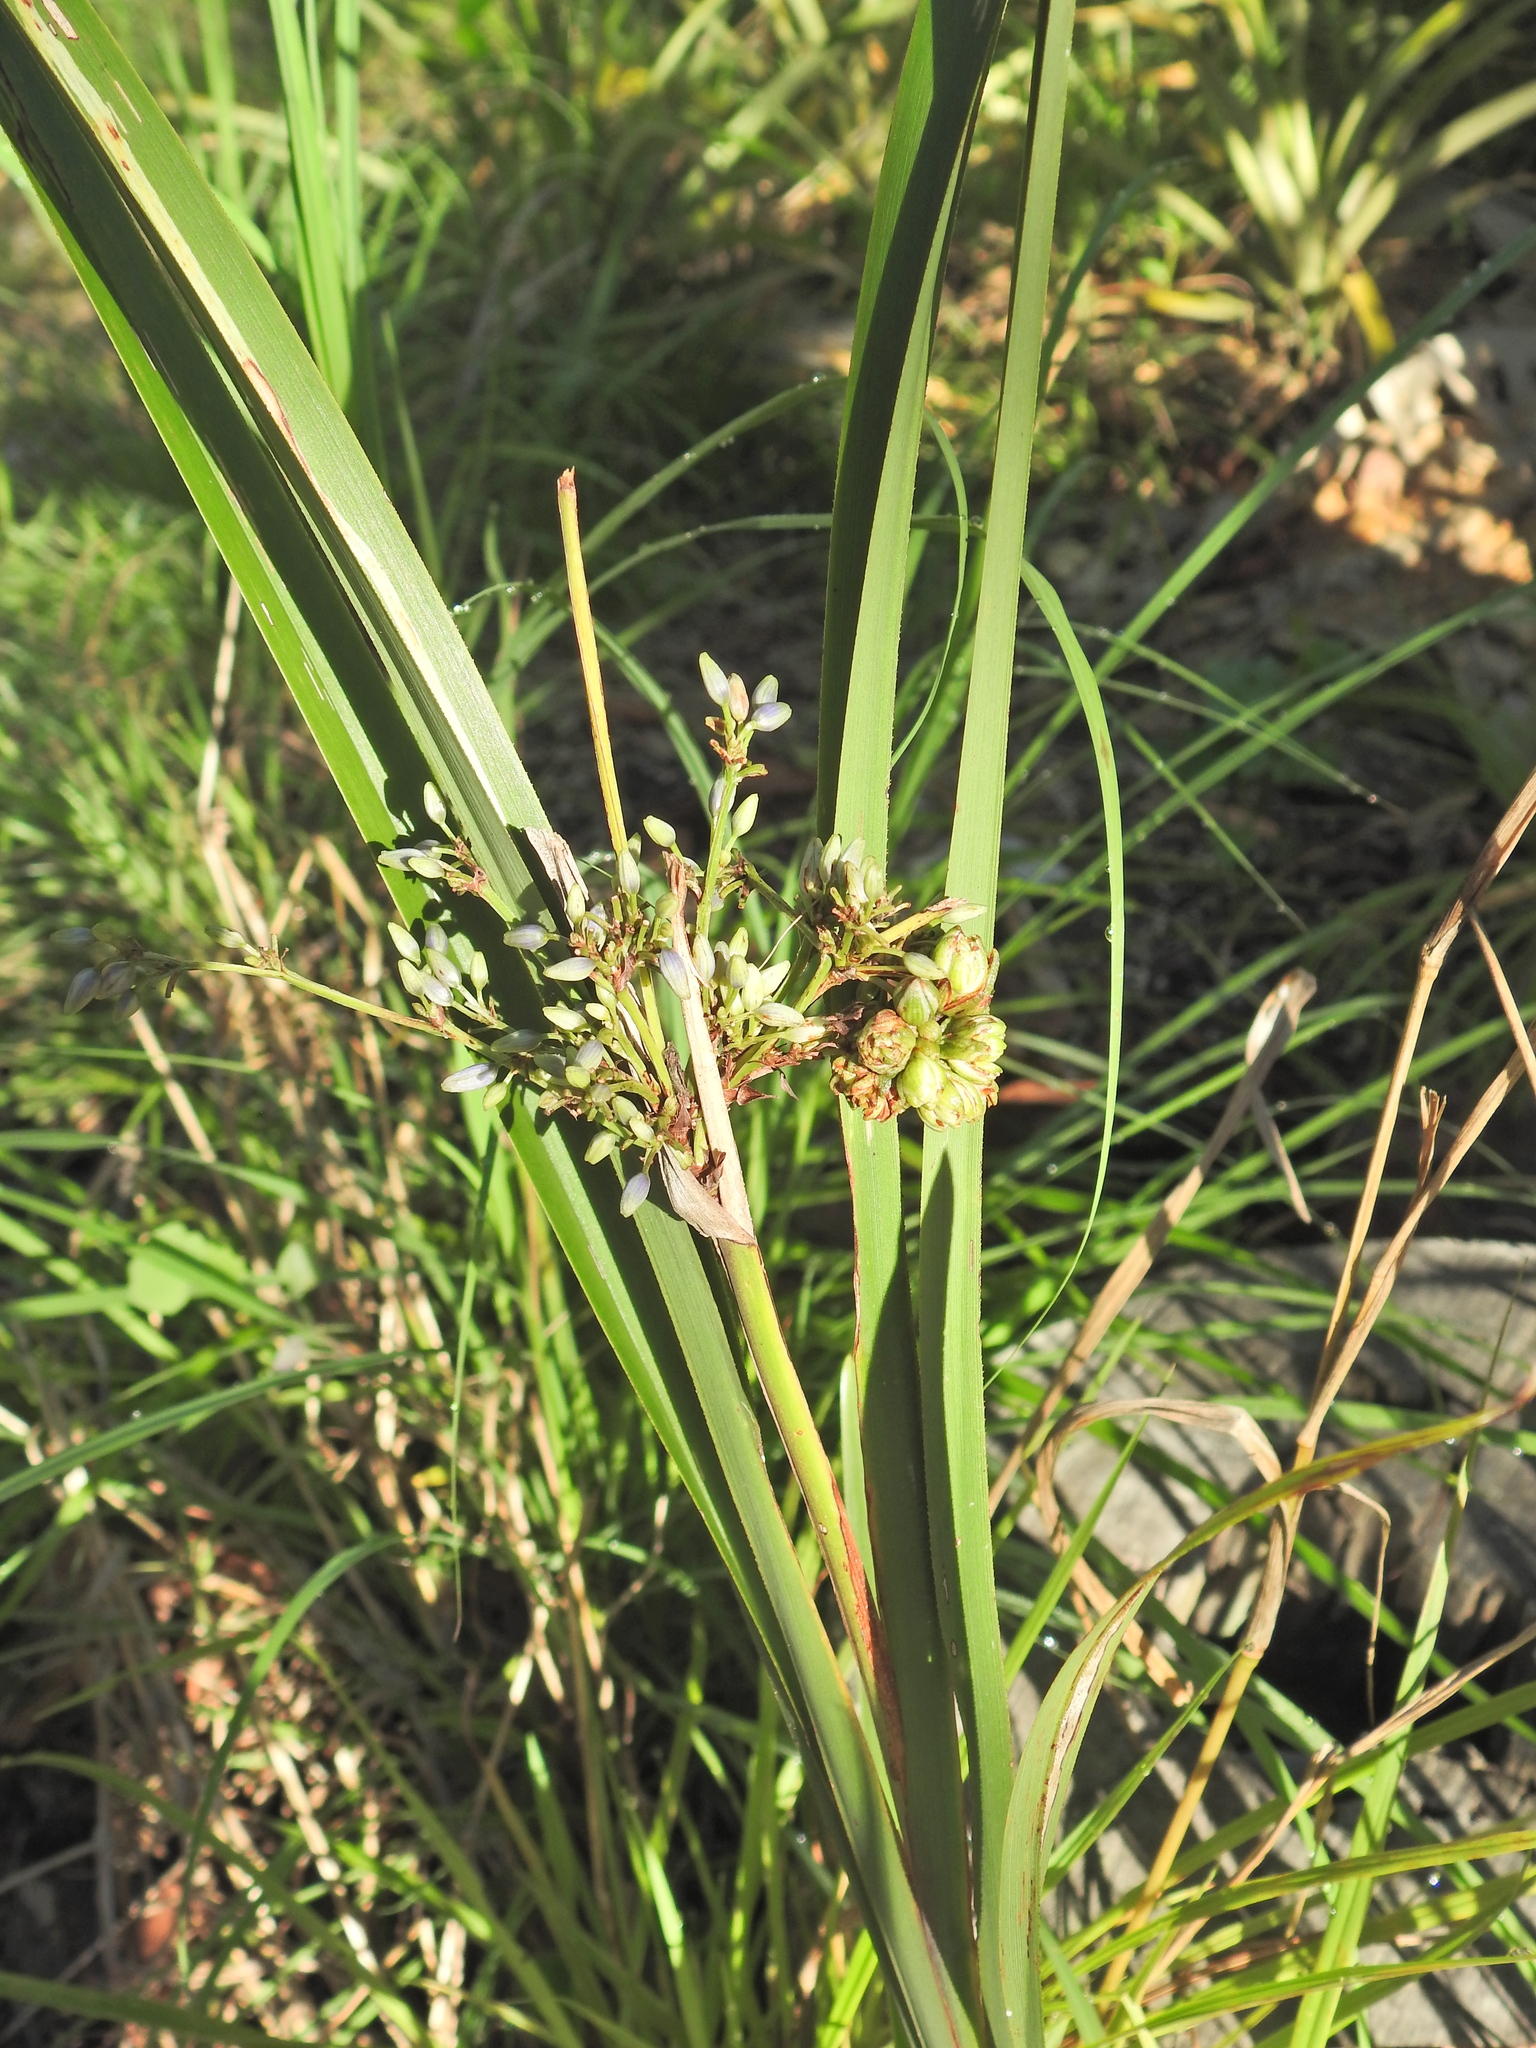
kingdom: Animalia
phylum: Arthropoda
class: Insecta
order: Thysanoptera
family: Thripidae
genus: Anaphothrips
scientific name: Anaphothrips carlylei
